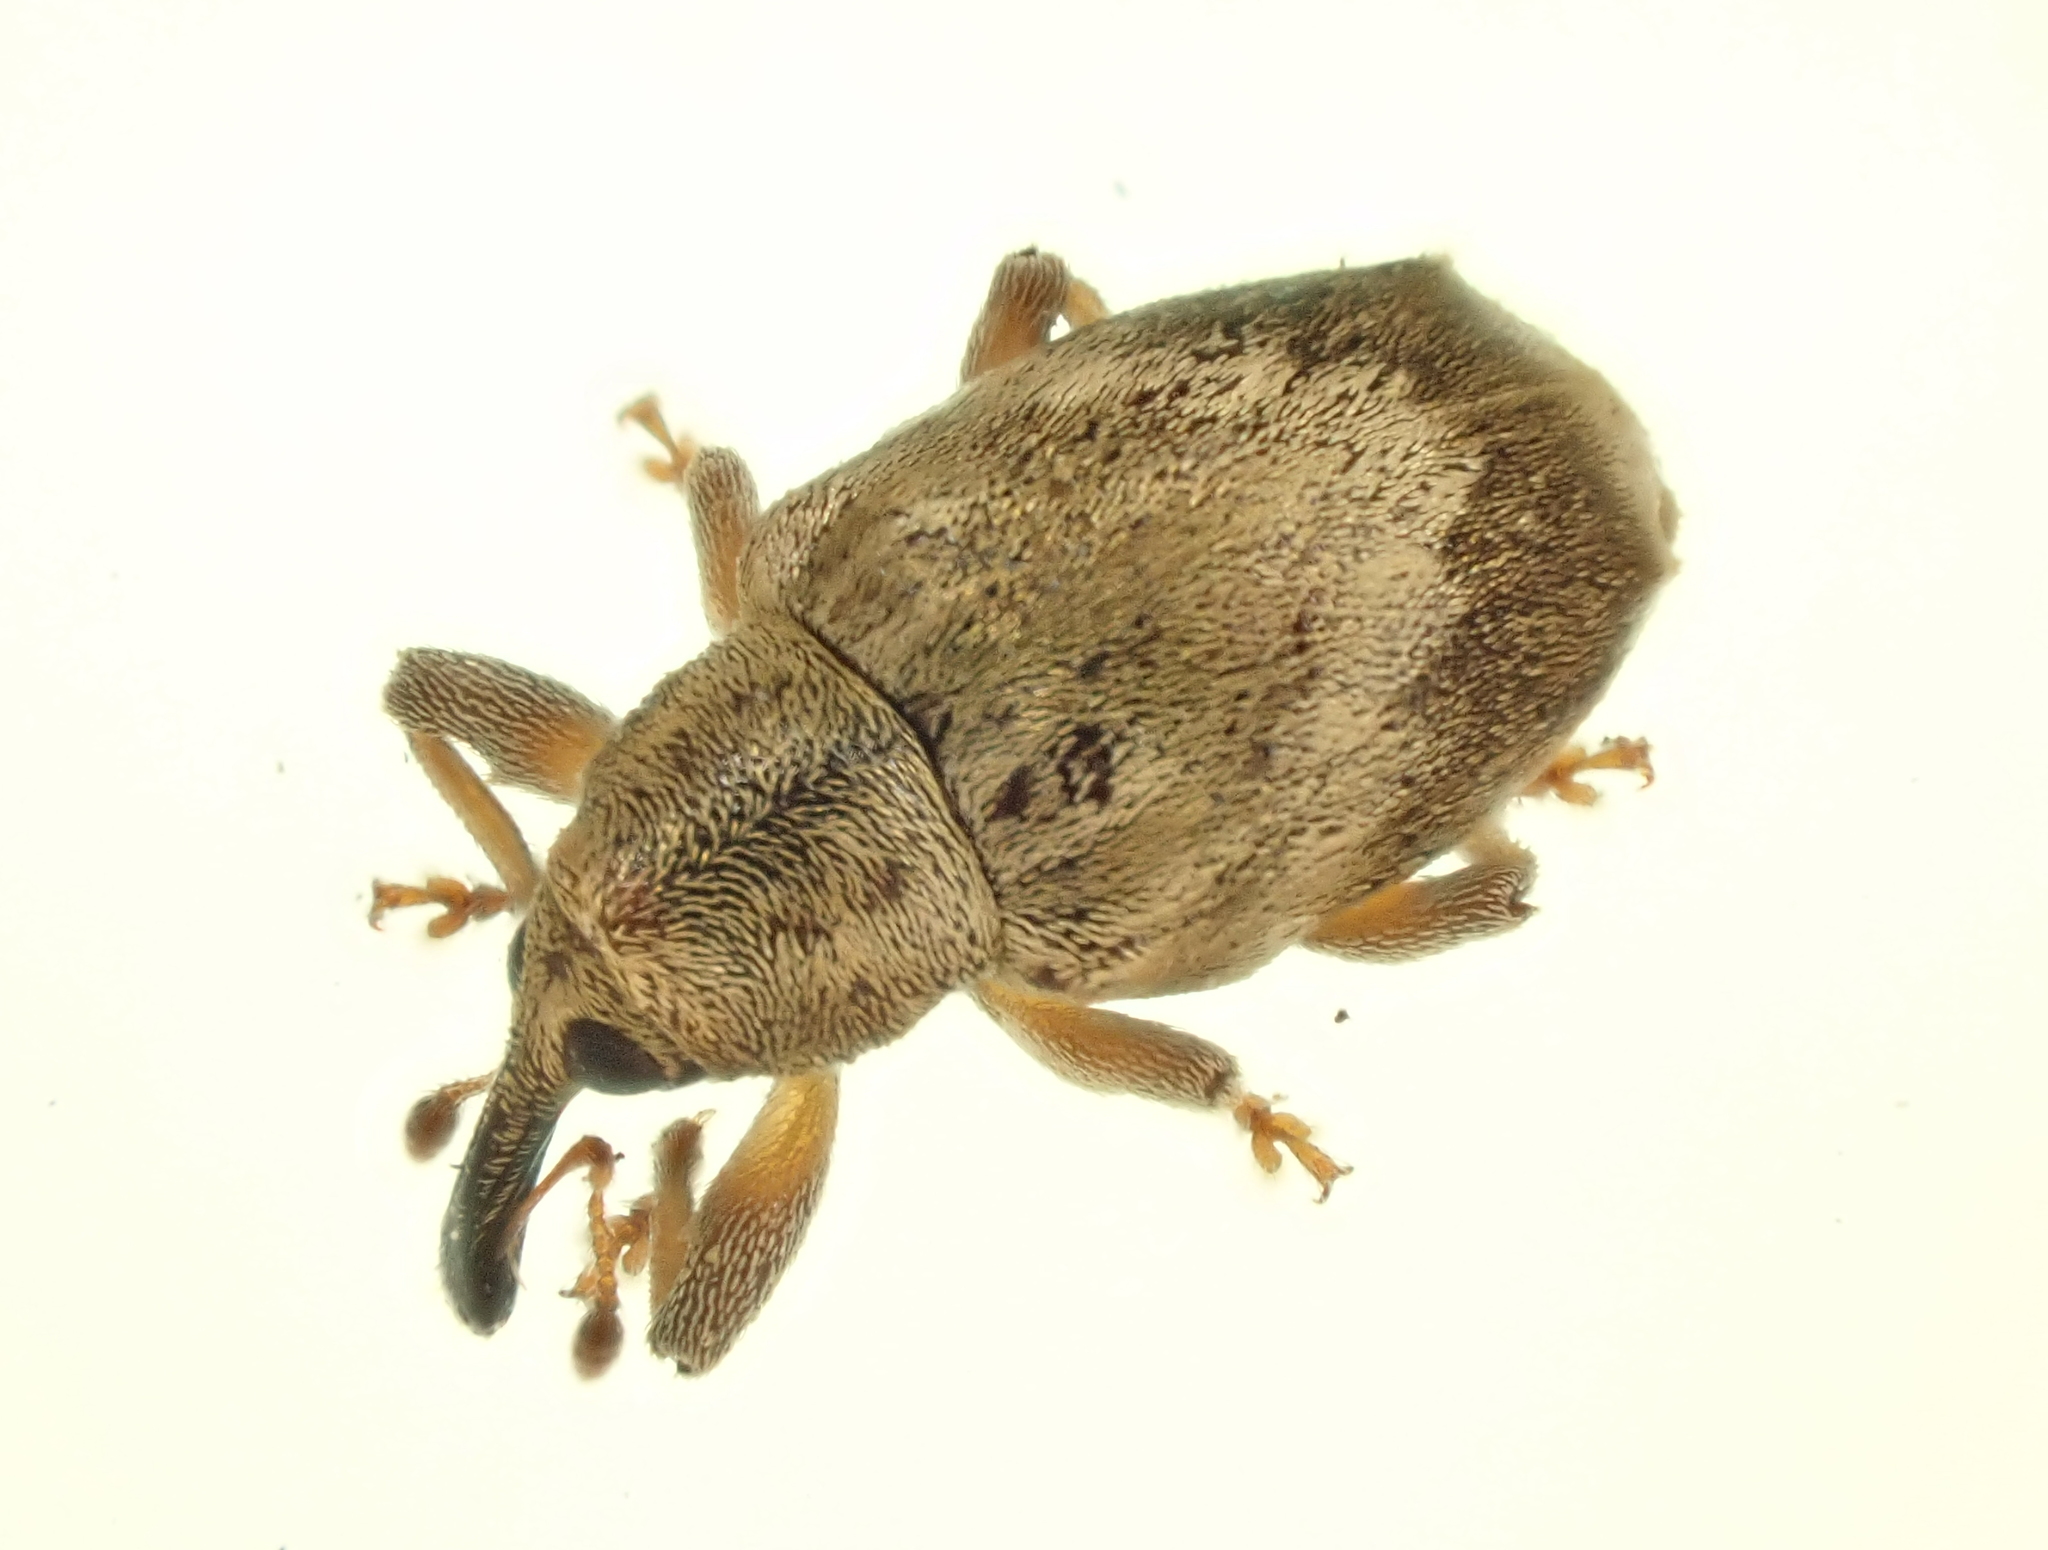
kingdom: Animalia
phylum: Arthropoda
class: Insecta
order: Coleoptera
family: Curculionidae
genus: Aneuma
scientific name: Aneuma compta
